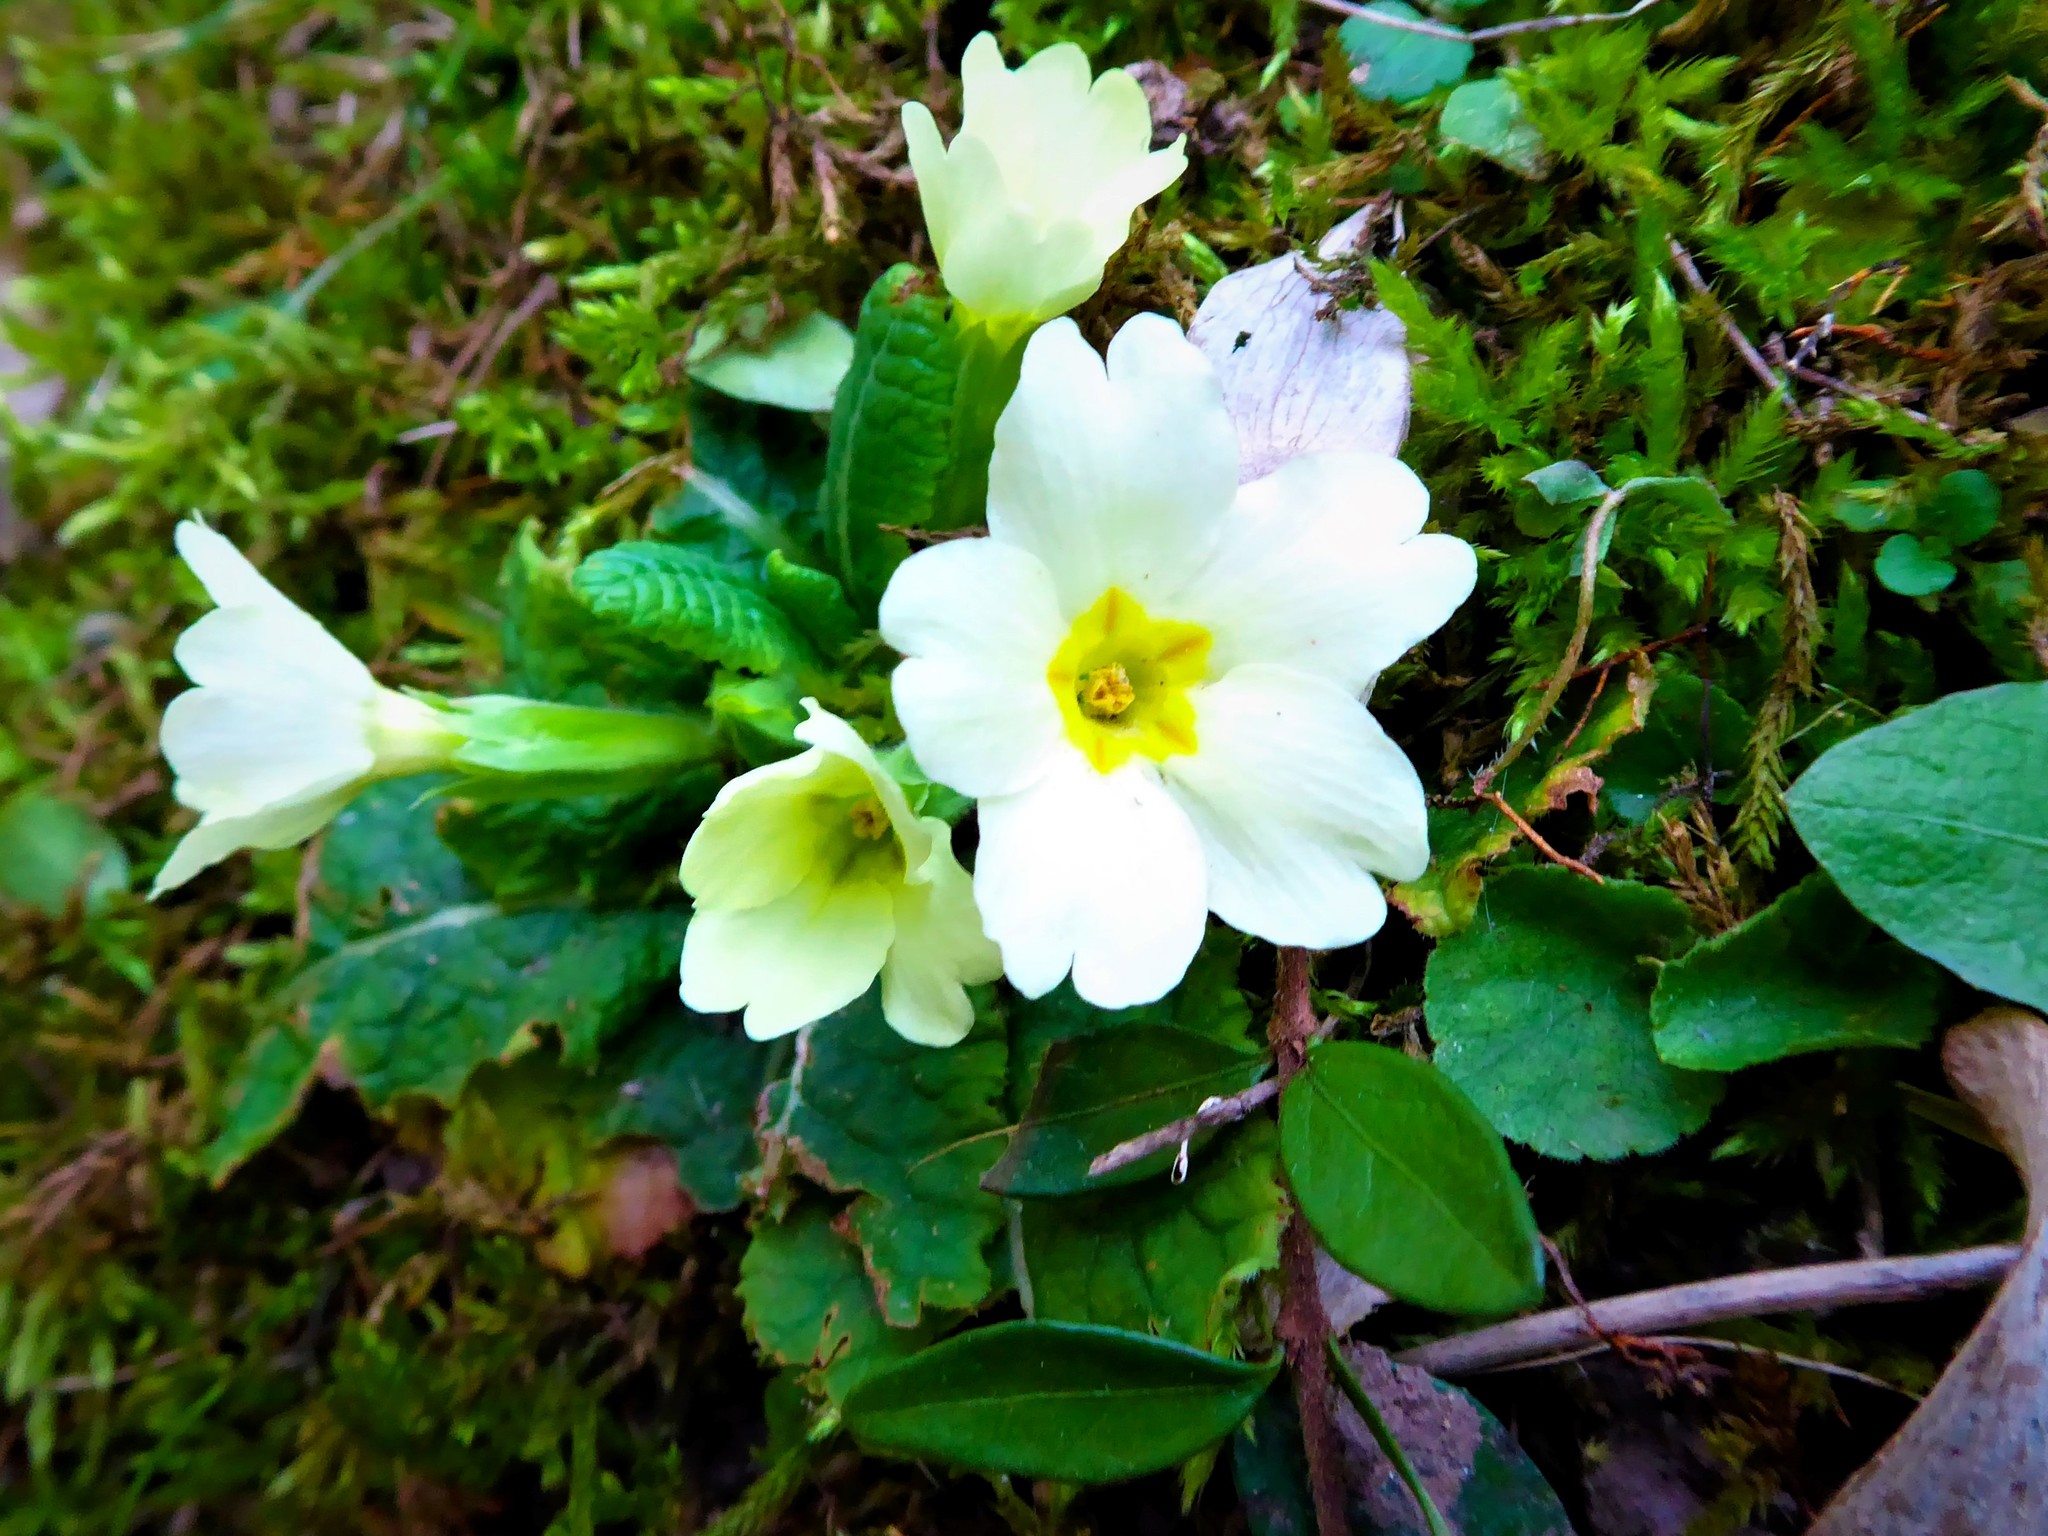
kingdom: Plantae
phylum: Tracheophyta
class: Magnoliopsida
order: Ericales
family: Primulaceae
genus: Primula
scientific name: Primula vulgaris
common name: Primrose
